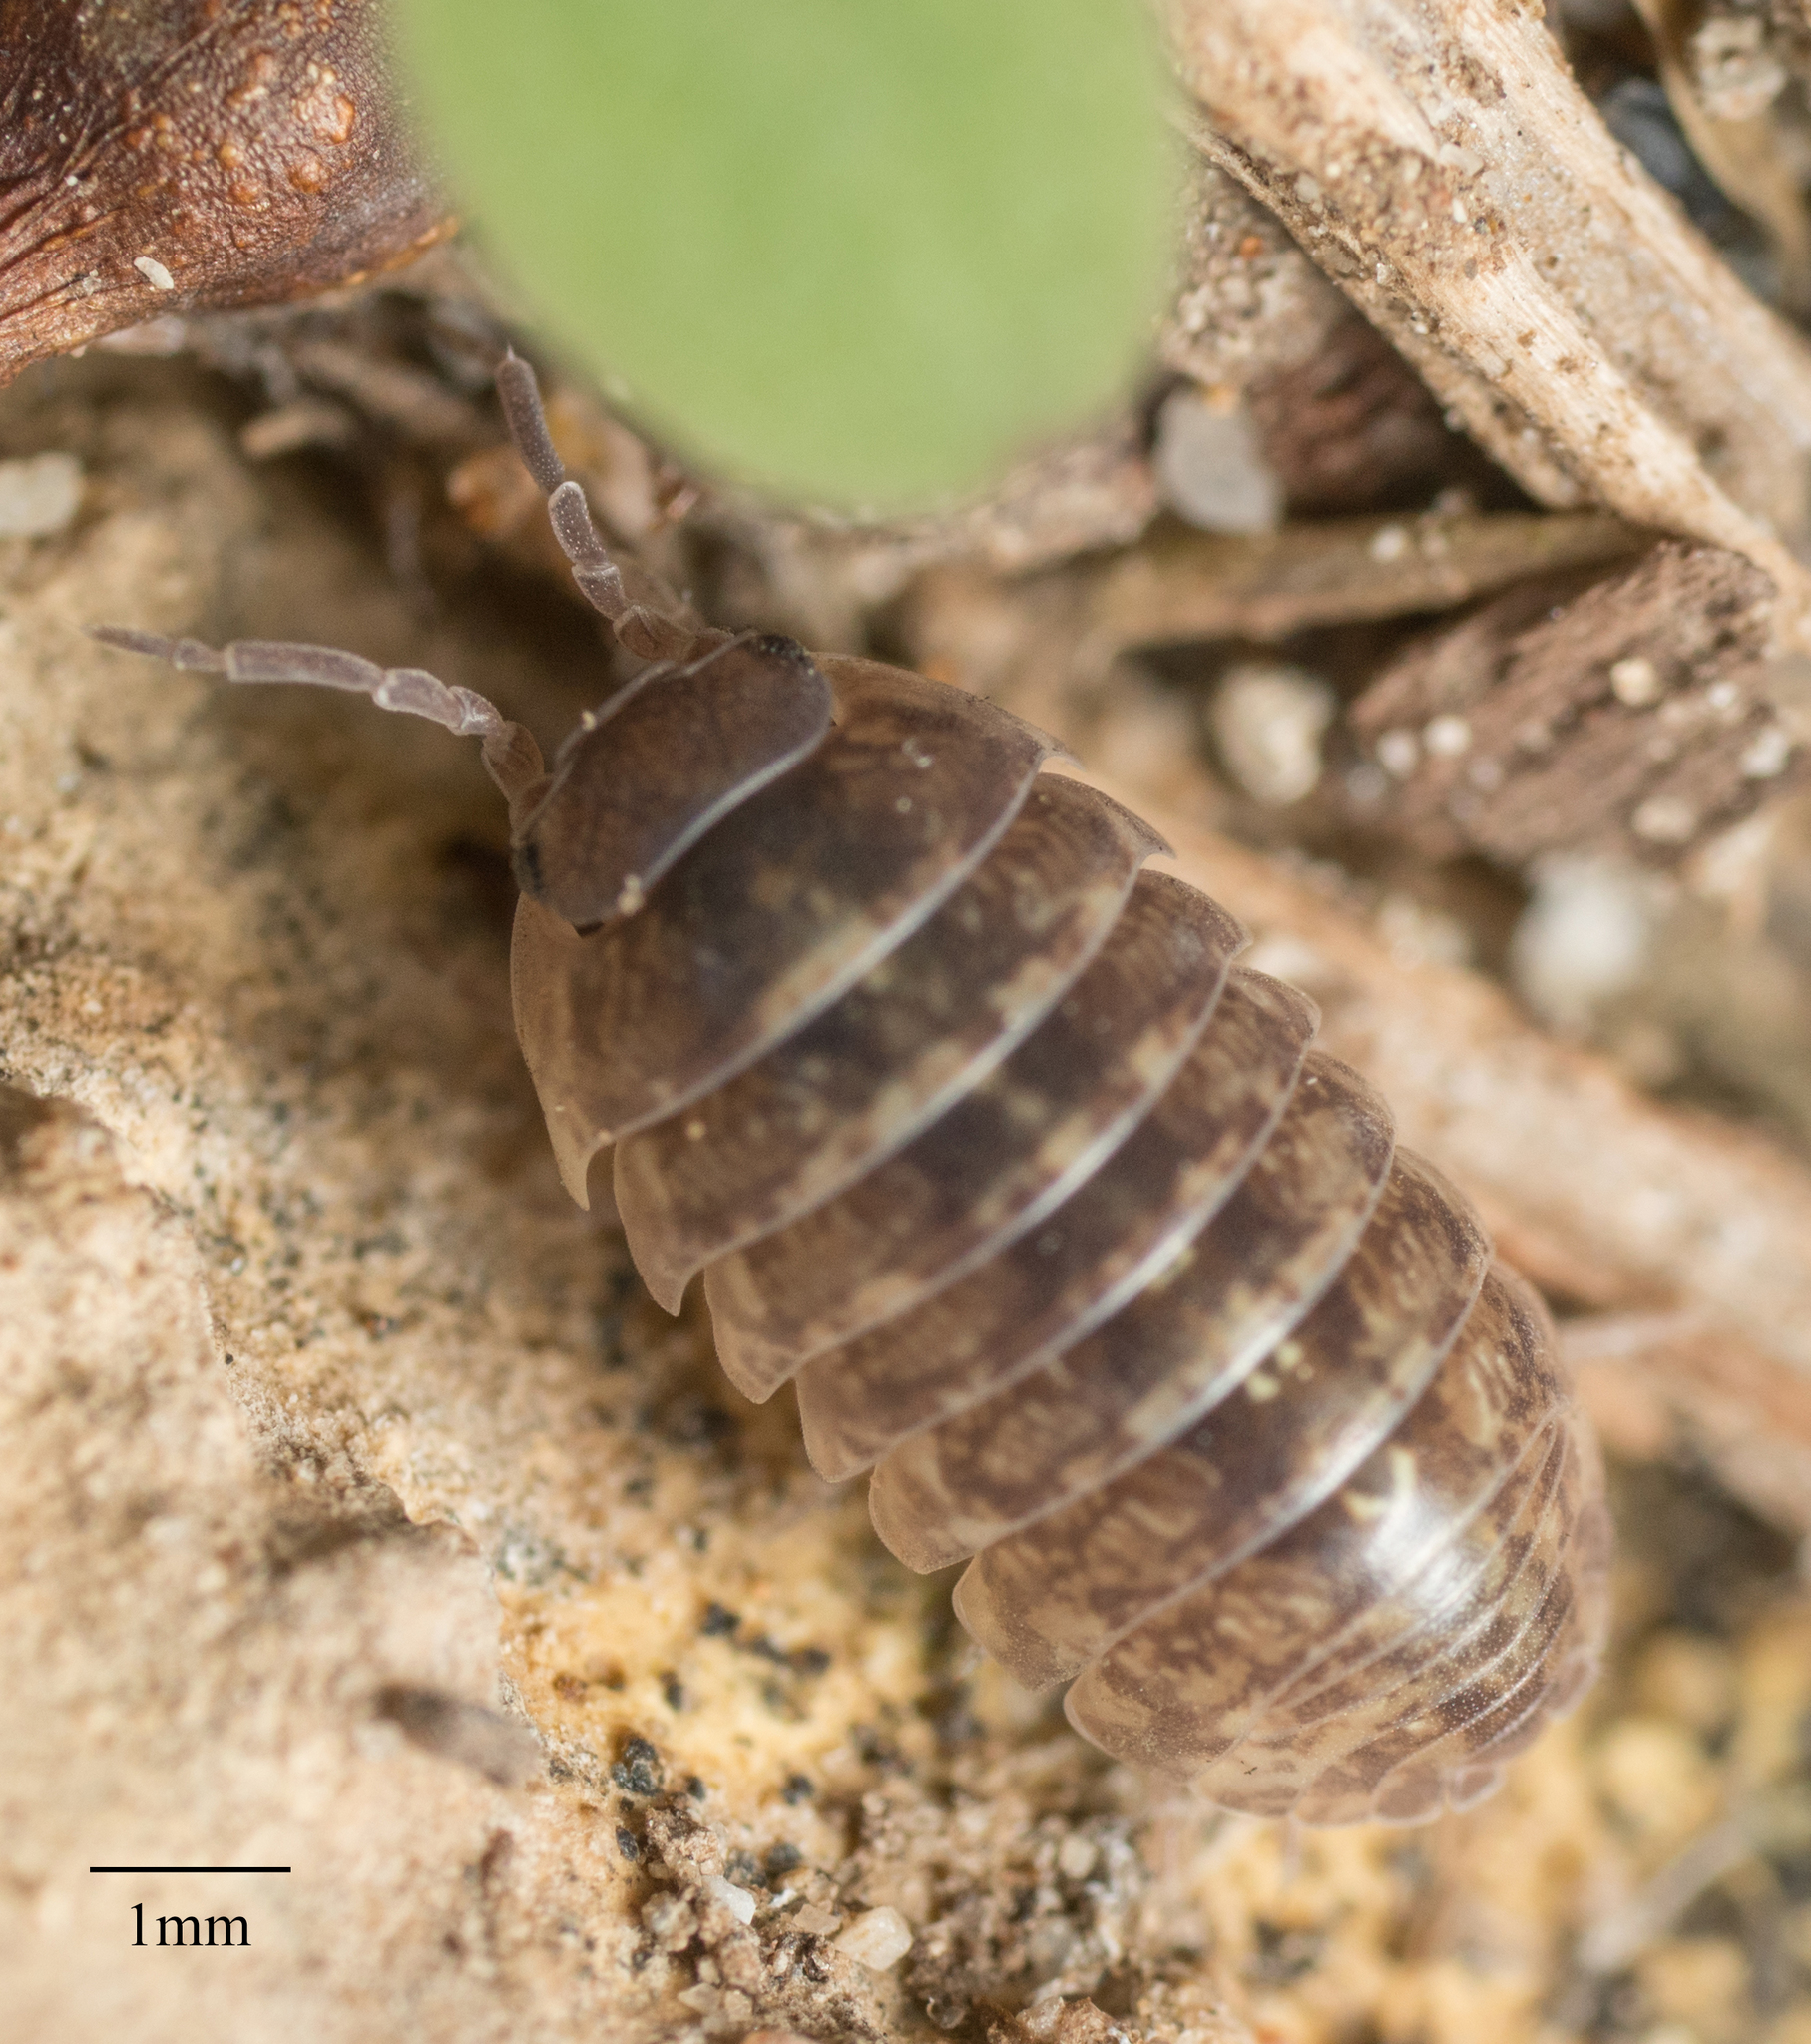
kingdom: Animalia
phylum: Arthropoda
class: Malacostraca
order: Isopoda
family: Armadillidiidae
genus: Armadillidium
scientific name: Armadillidium vulgare
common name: Common pill woodlouse
